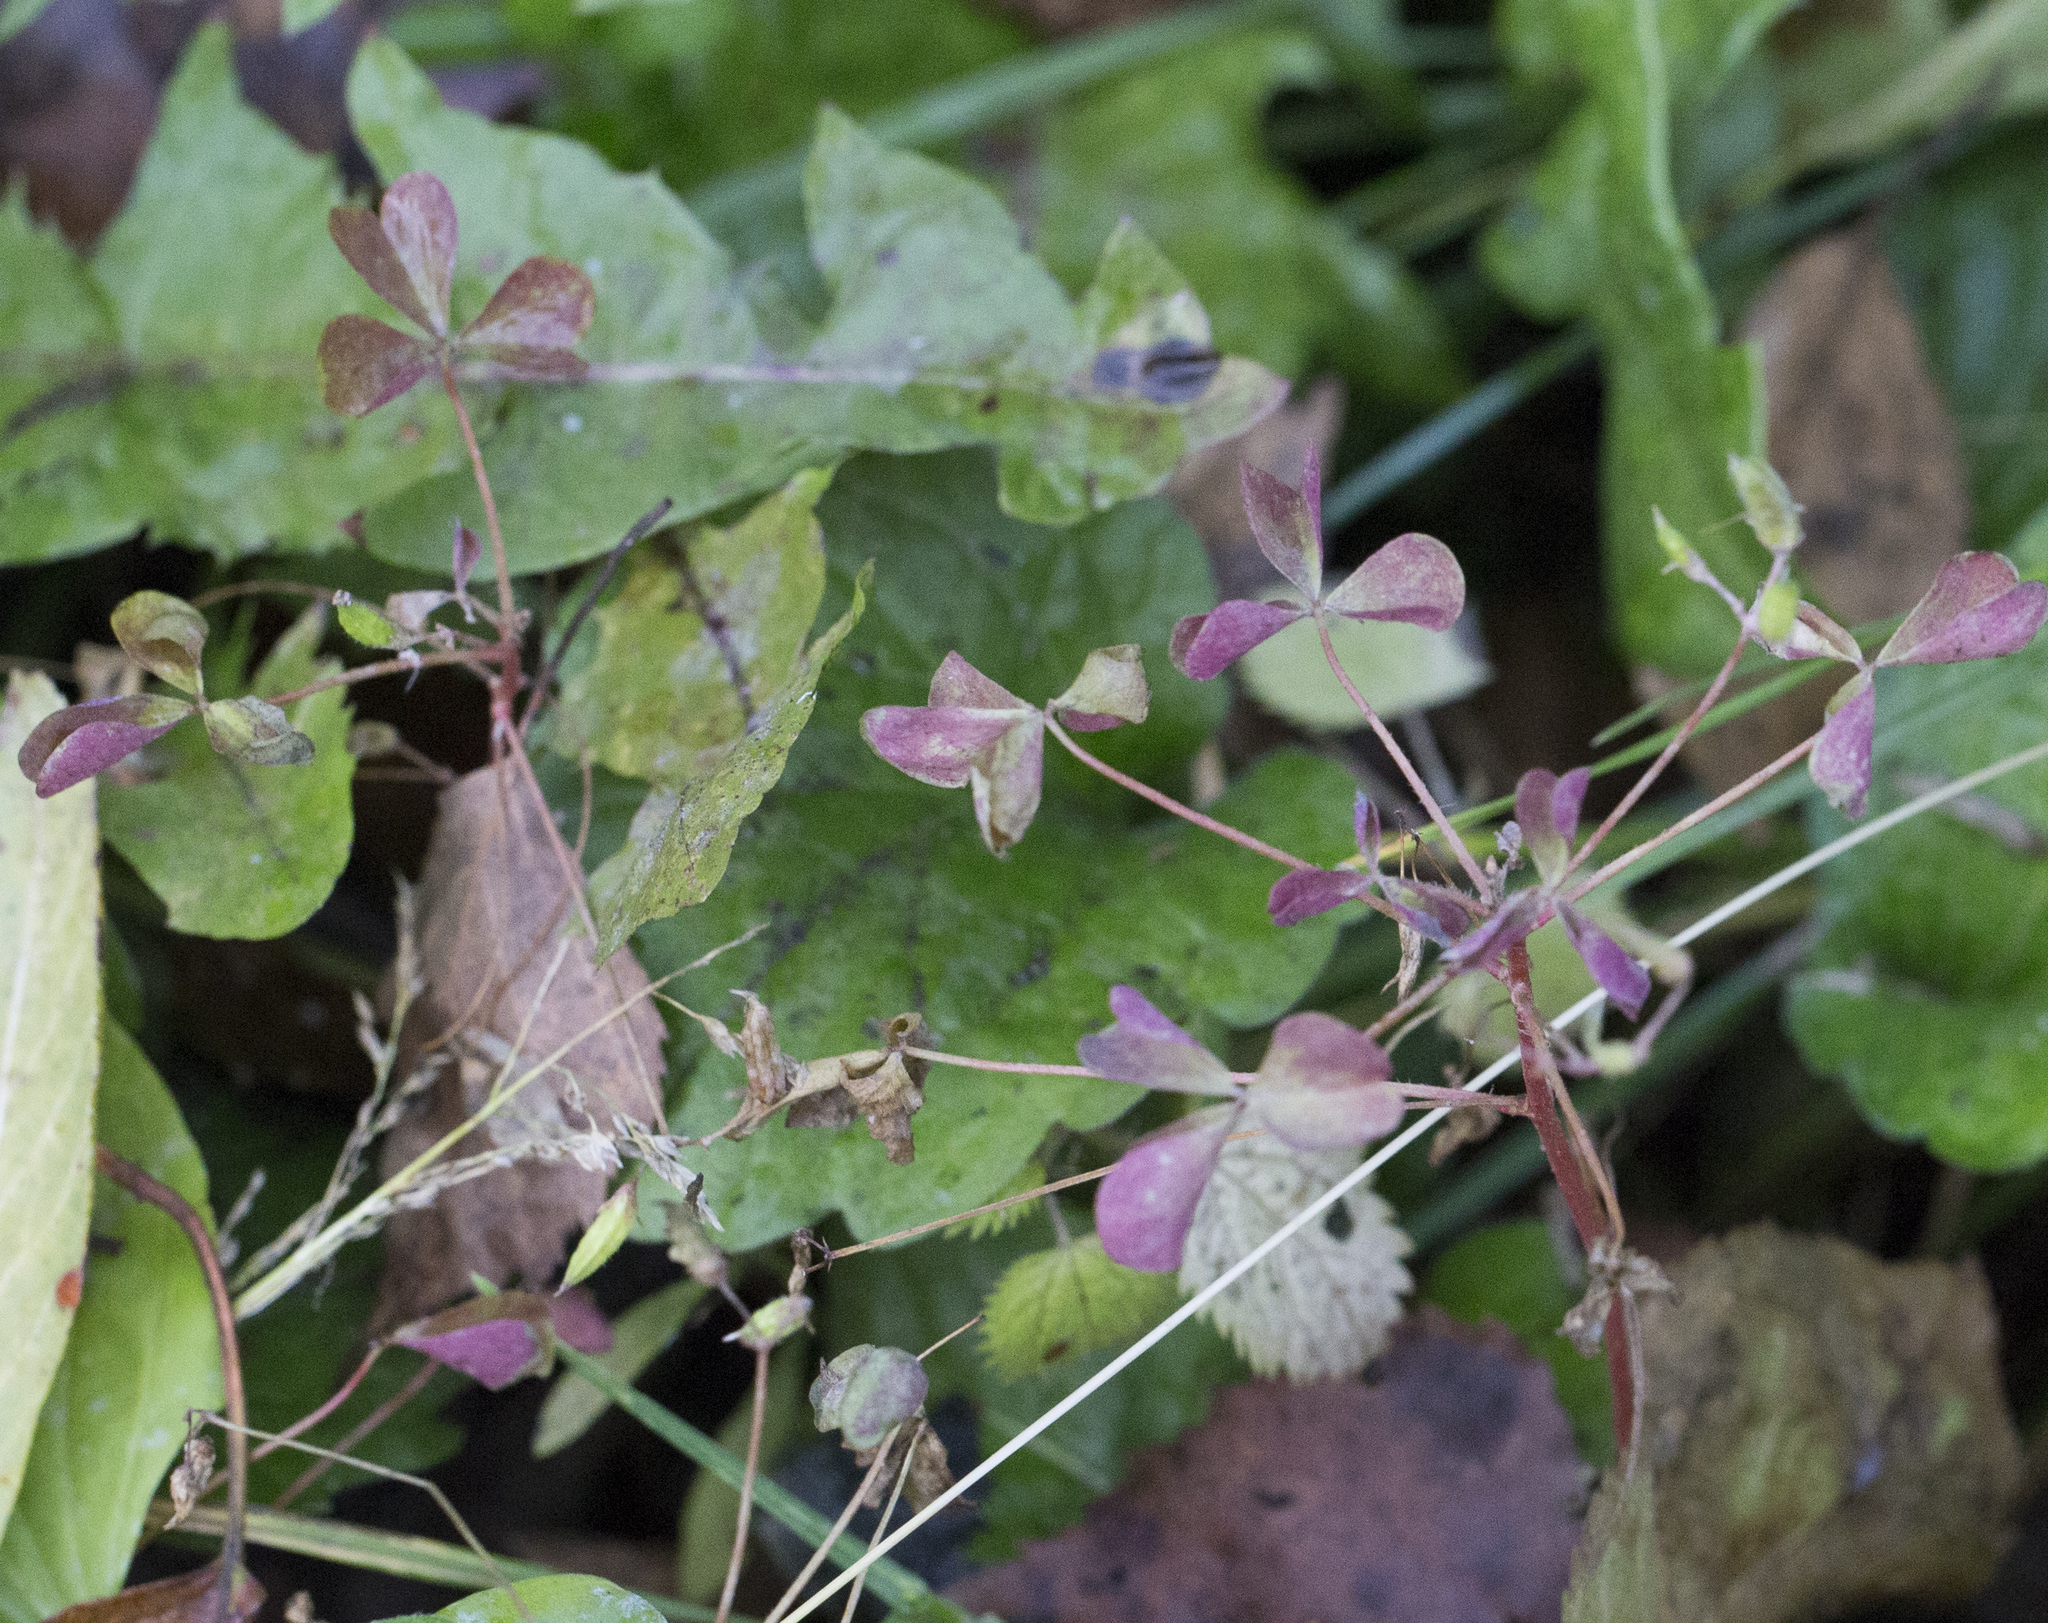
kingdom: Plantae
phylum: Tracheophyta
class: Magnoliopsida
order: Oxalidales
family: Oxalidaceae
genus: Oxalis
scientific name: Oxalis stricta
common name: Upright yellow-sorrel
